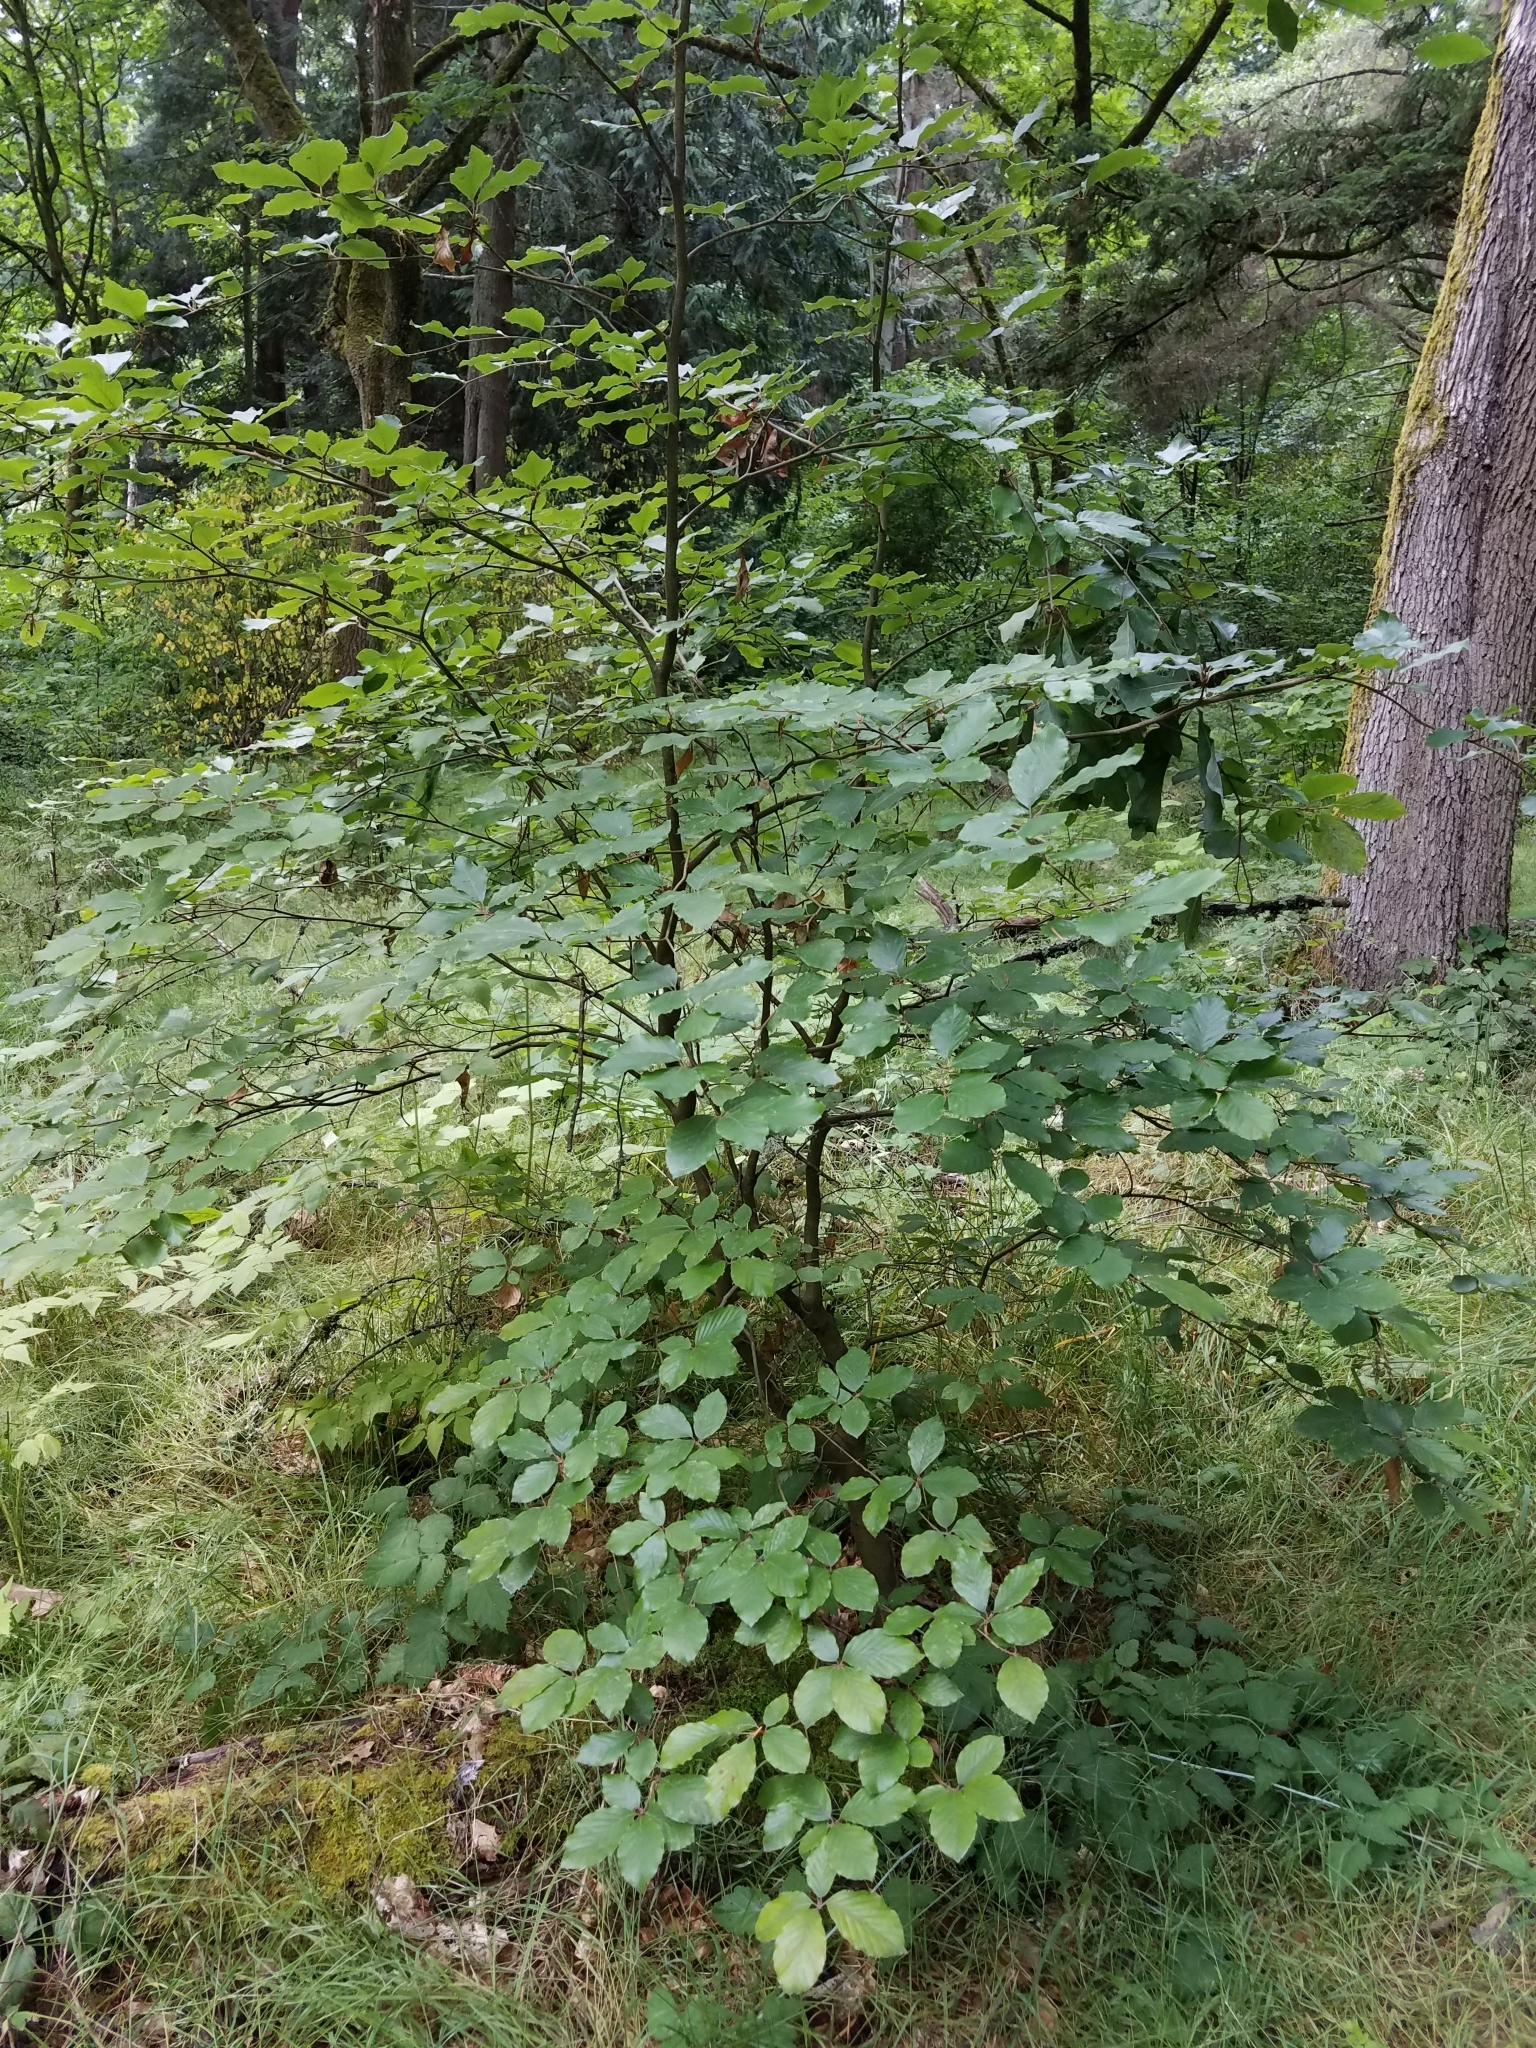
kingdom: Plantae
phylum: Tracheophyta
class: Magnoliopsida
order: Fagales
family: Fagaceae
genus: Fagus
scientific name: Fagus sylvatica
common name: Beech
